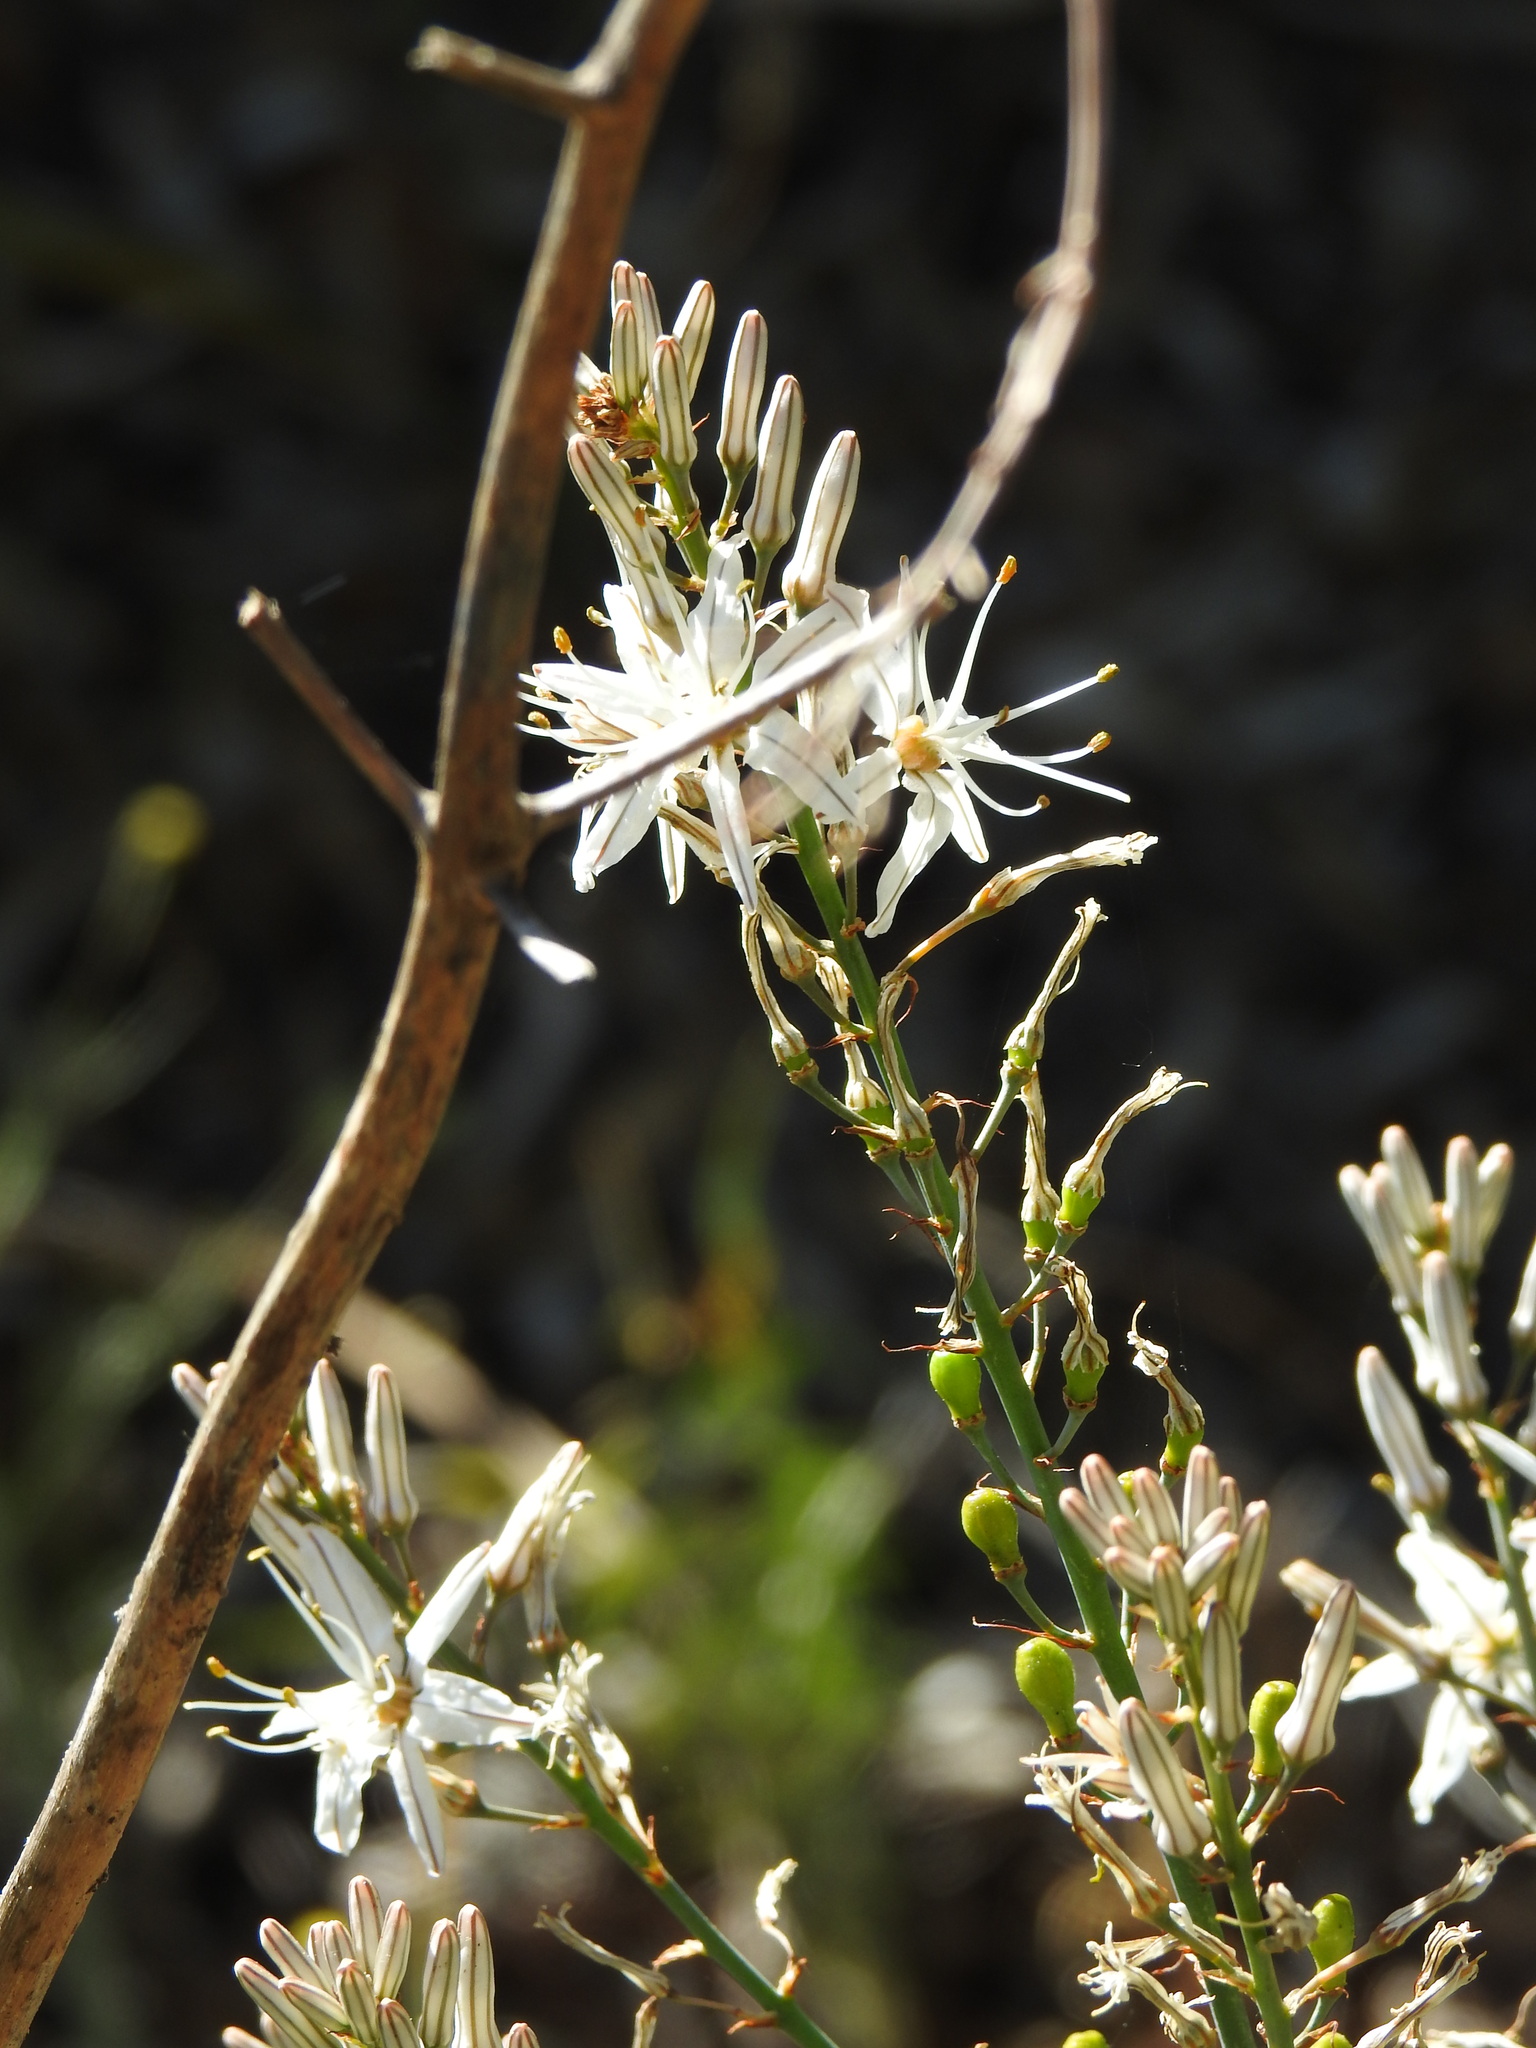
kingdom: Plantae
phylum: Tracheophyta
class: Liliopsida
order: Asparagales
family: Asphodelaceae
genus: Asphodelus
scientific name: Asphodelus serotinus
